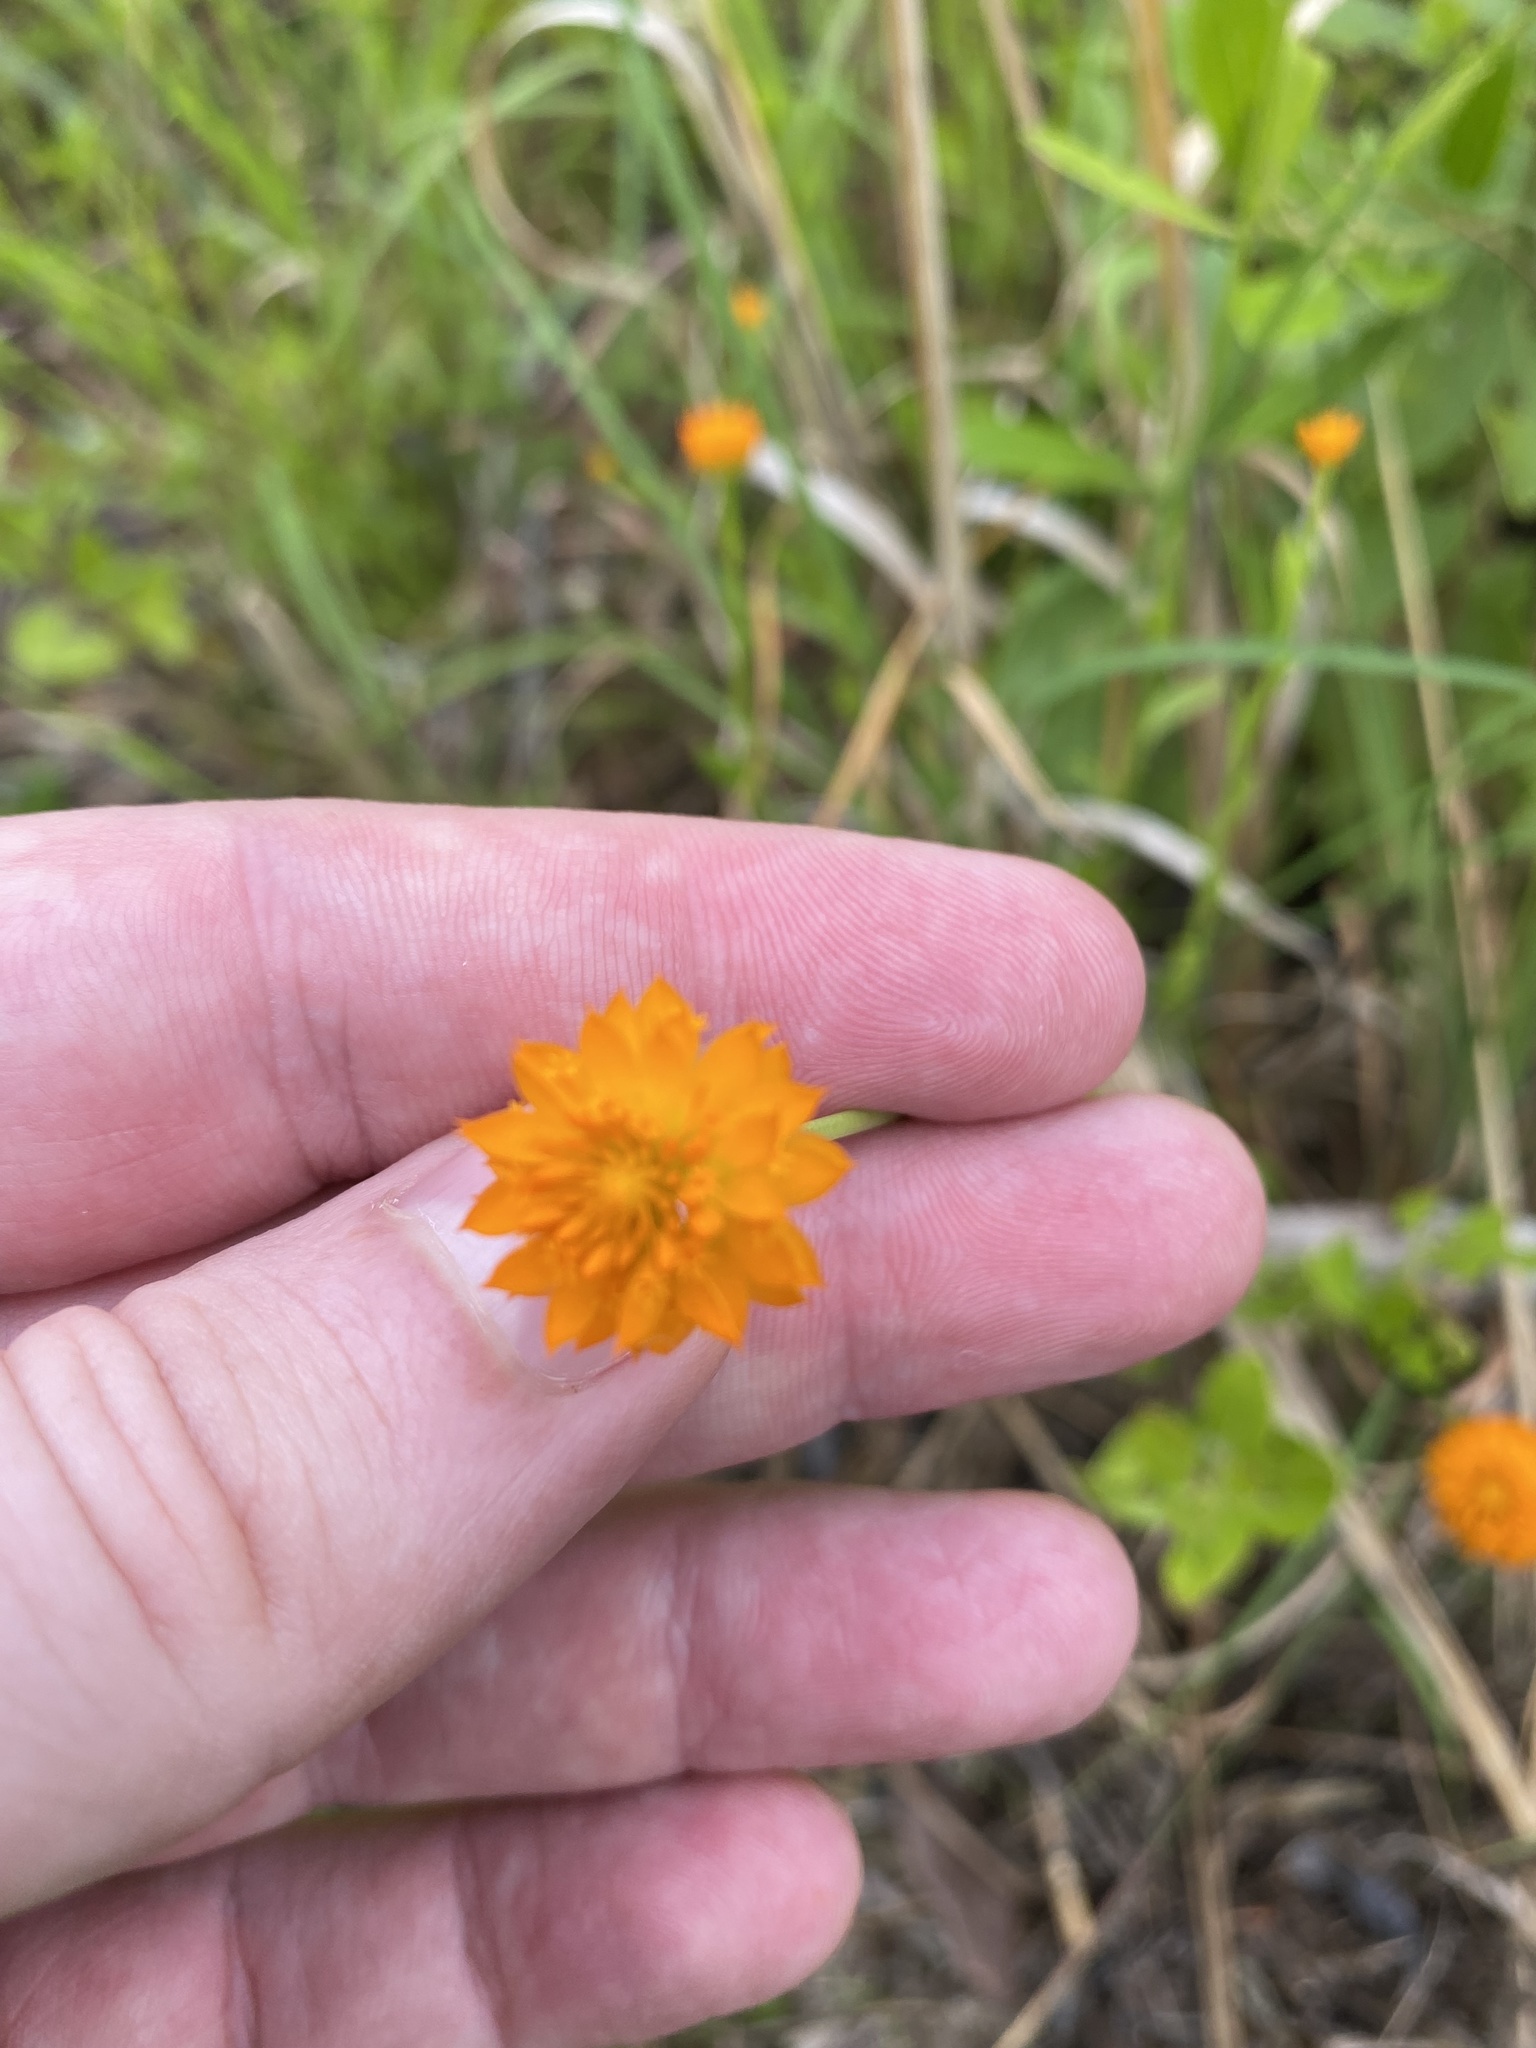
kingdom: Plantae
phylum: Tracheophyta
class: Magnoliopsida
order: Fabales
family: Polygalaceae
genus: Polygala
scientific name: Polygala lutea
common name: Orange milkwort
